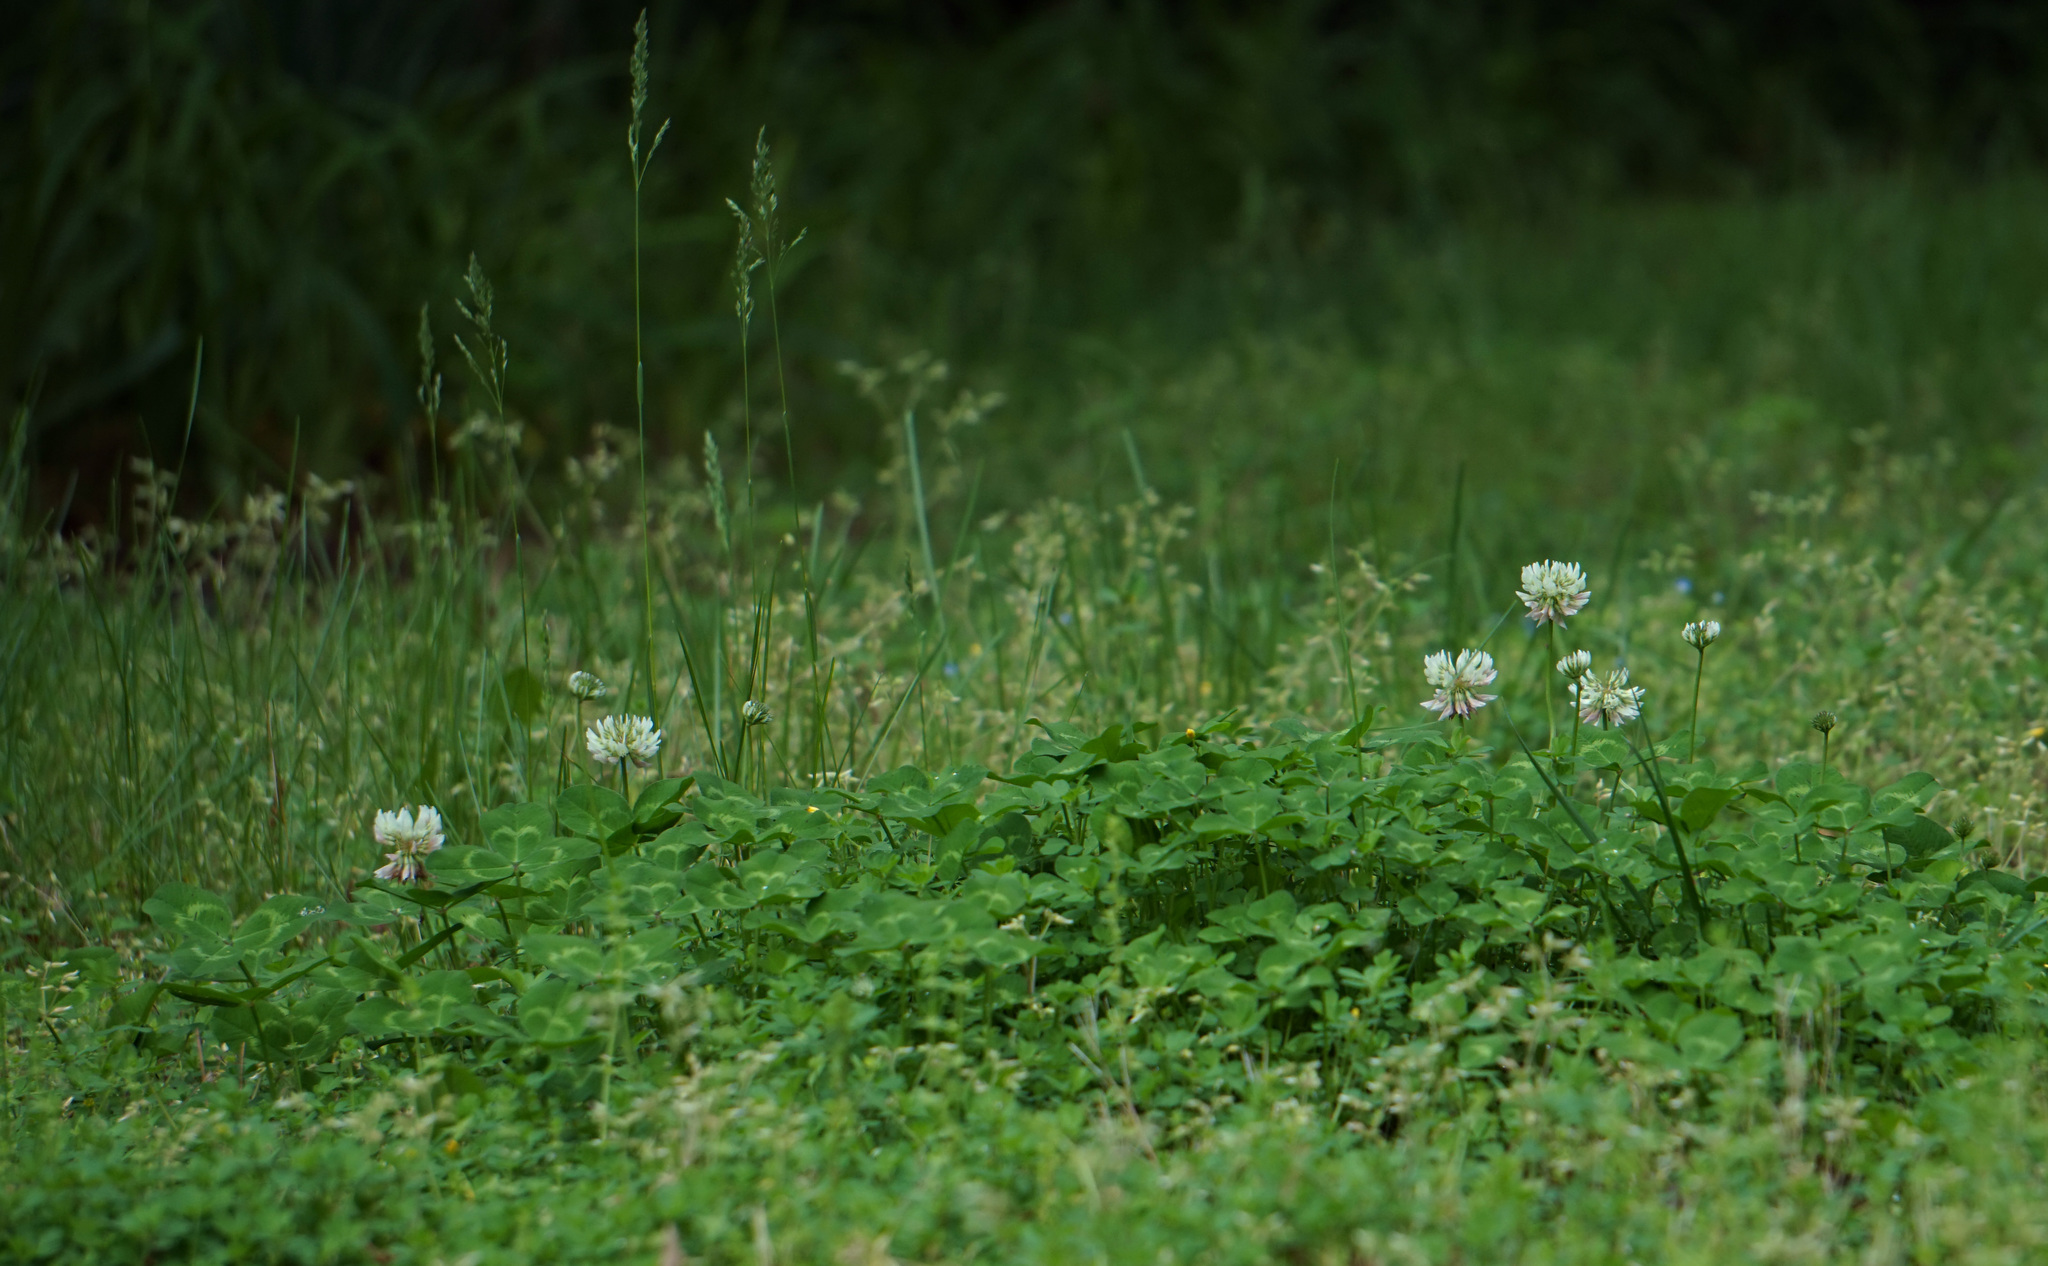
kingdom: Plantae
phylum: Tracheophyta
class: Magnoliopsida
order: Fabales
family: Fabaceae
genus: Trifolium
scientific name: Trifolium repens
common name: White clover
